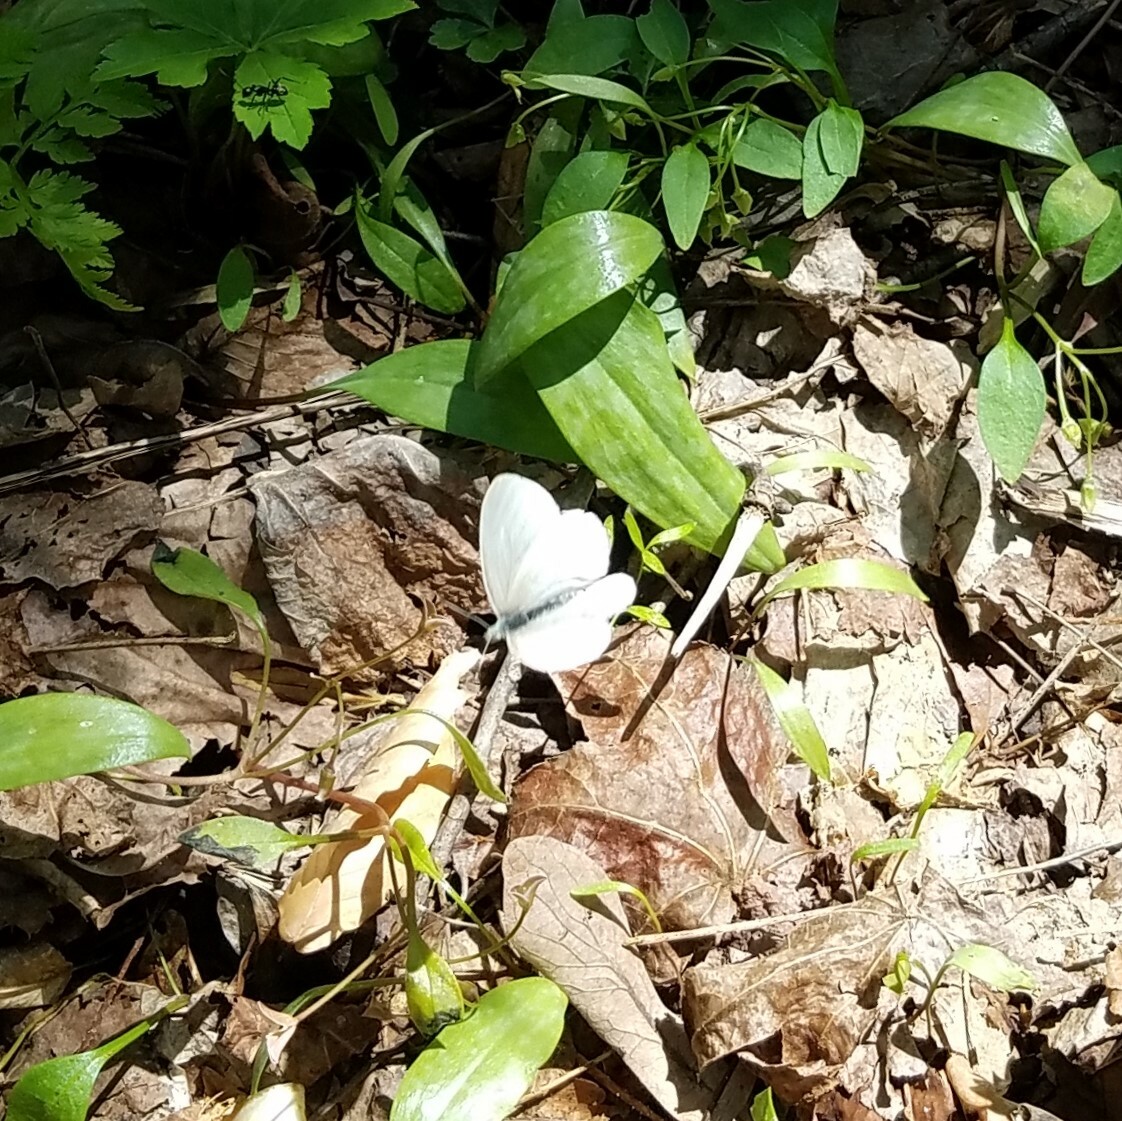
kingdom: Animalia
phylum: Arthropoda
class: Insecta
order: Lepidoptera
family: Pieridae
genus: Pieris
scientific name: Pieris virginiensis
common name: West virginia white
